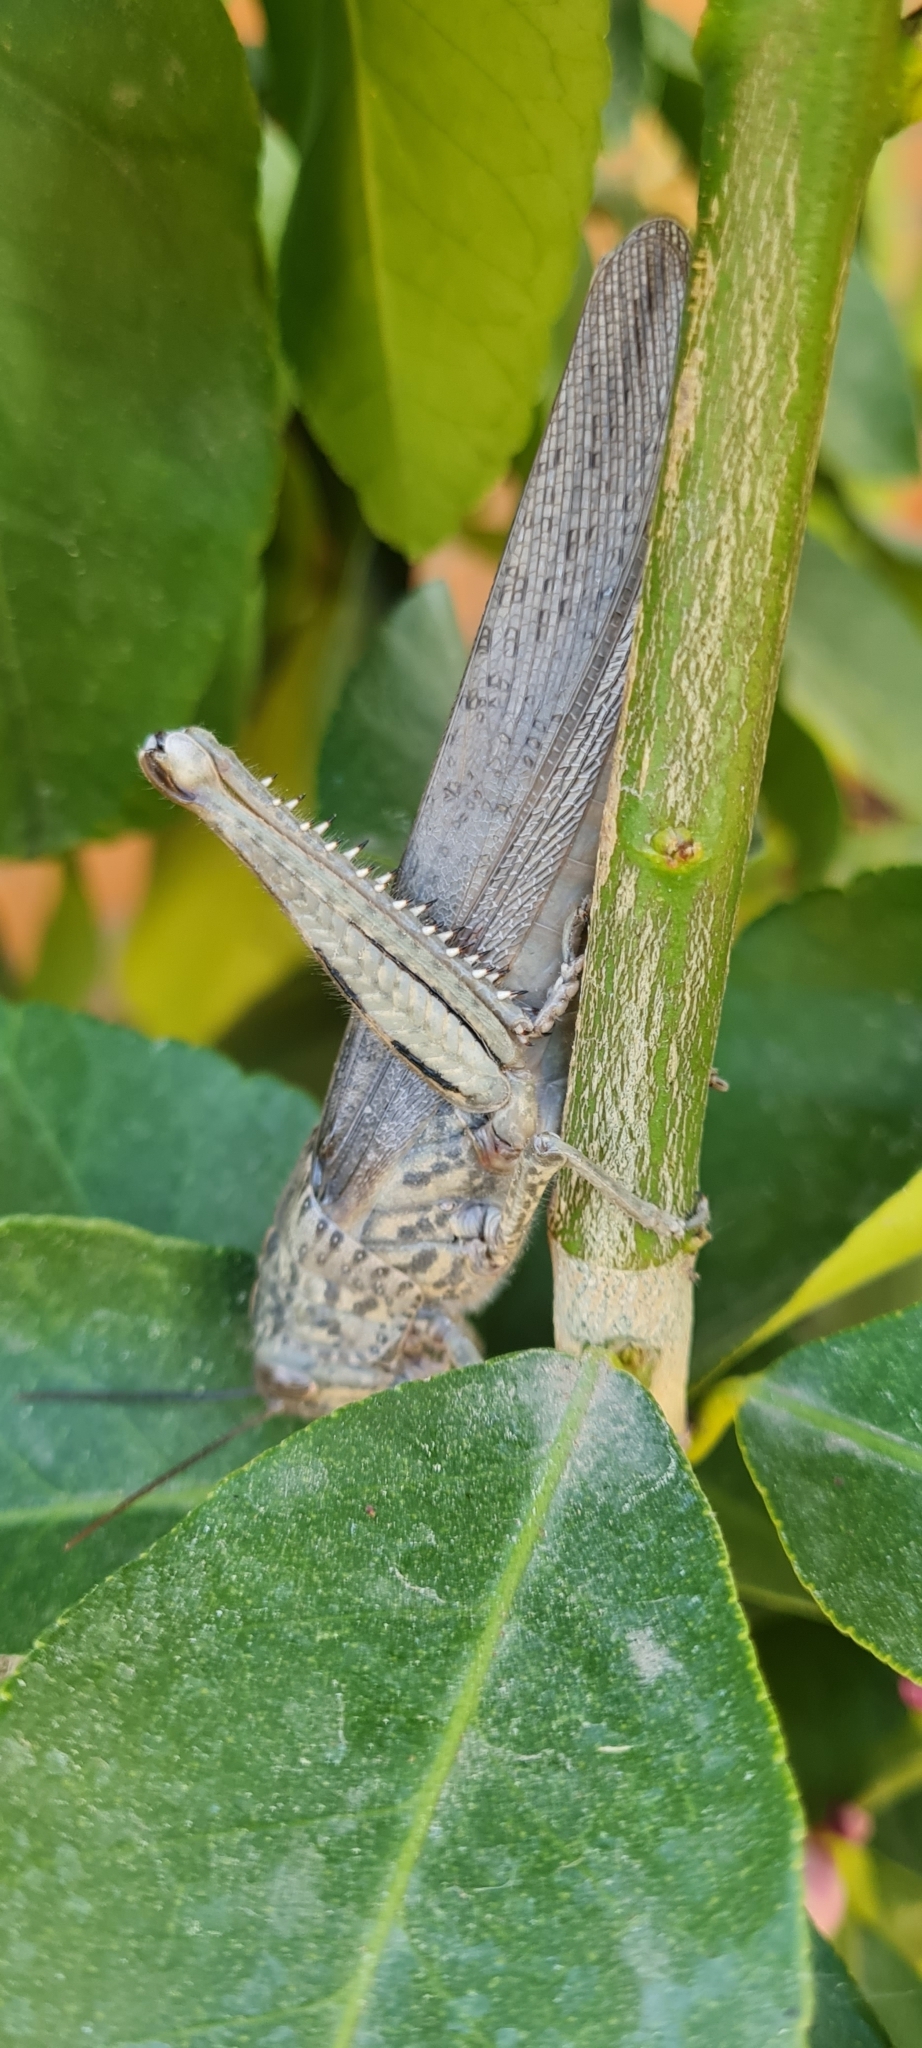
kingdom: Animalia
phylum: Arthropoda
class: Insecta
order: Orthoptera
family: Acrididae
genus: Anacridium
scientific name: Anacridium aegyptium
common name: Egyptian grasshopper
